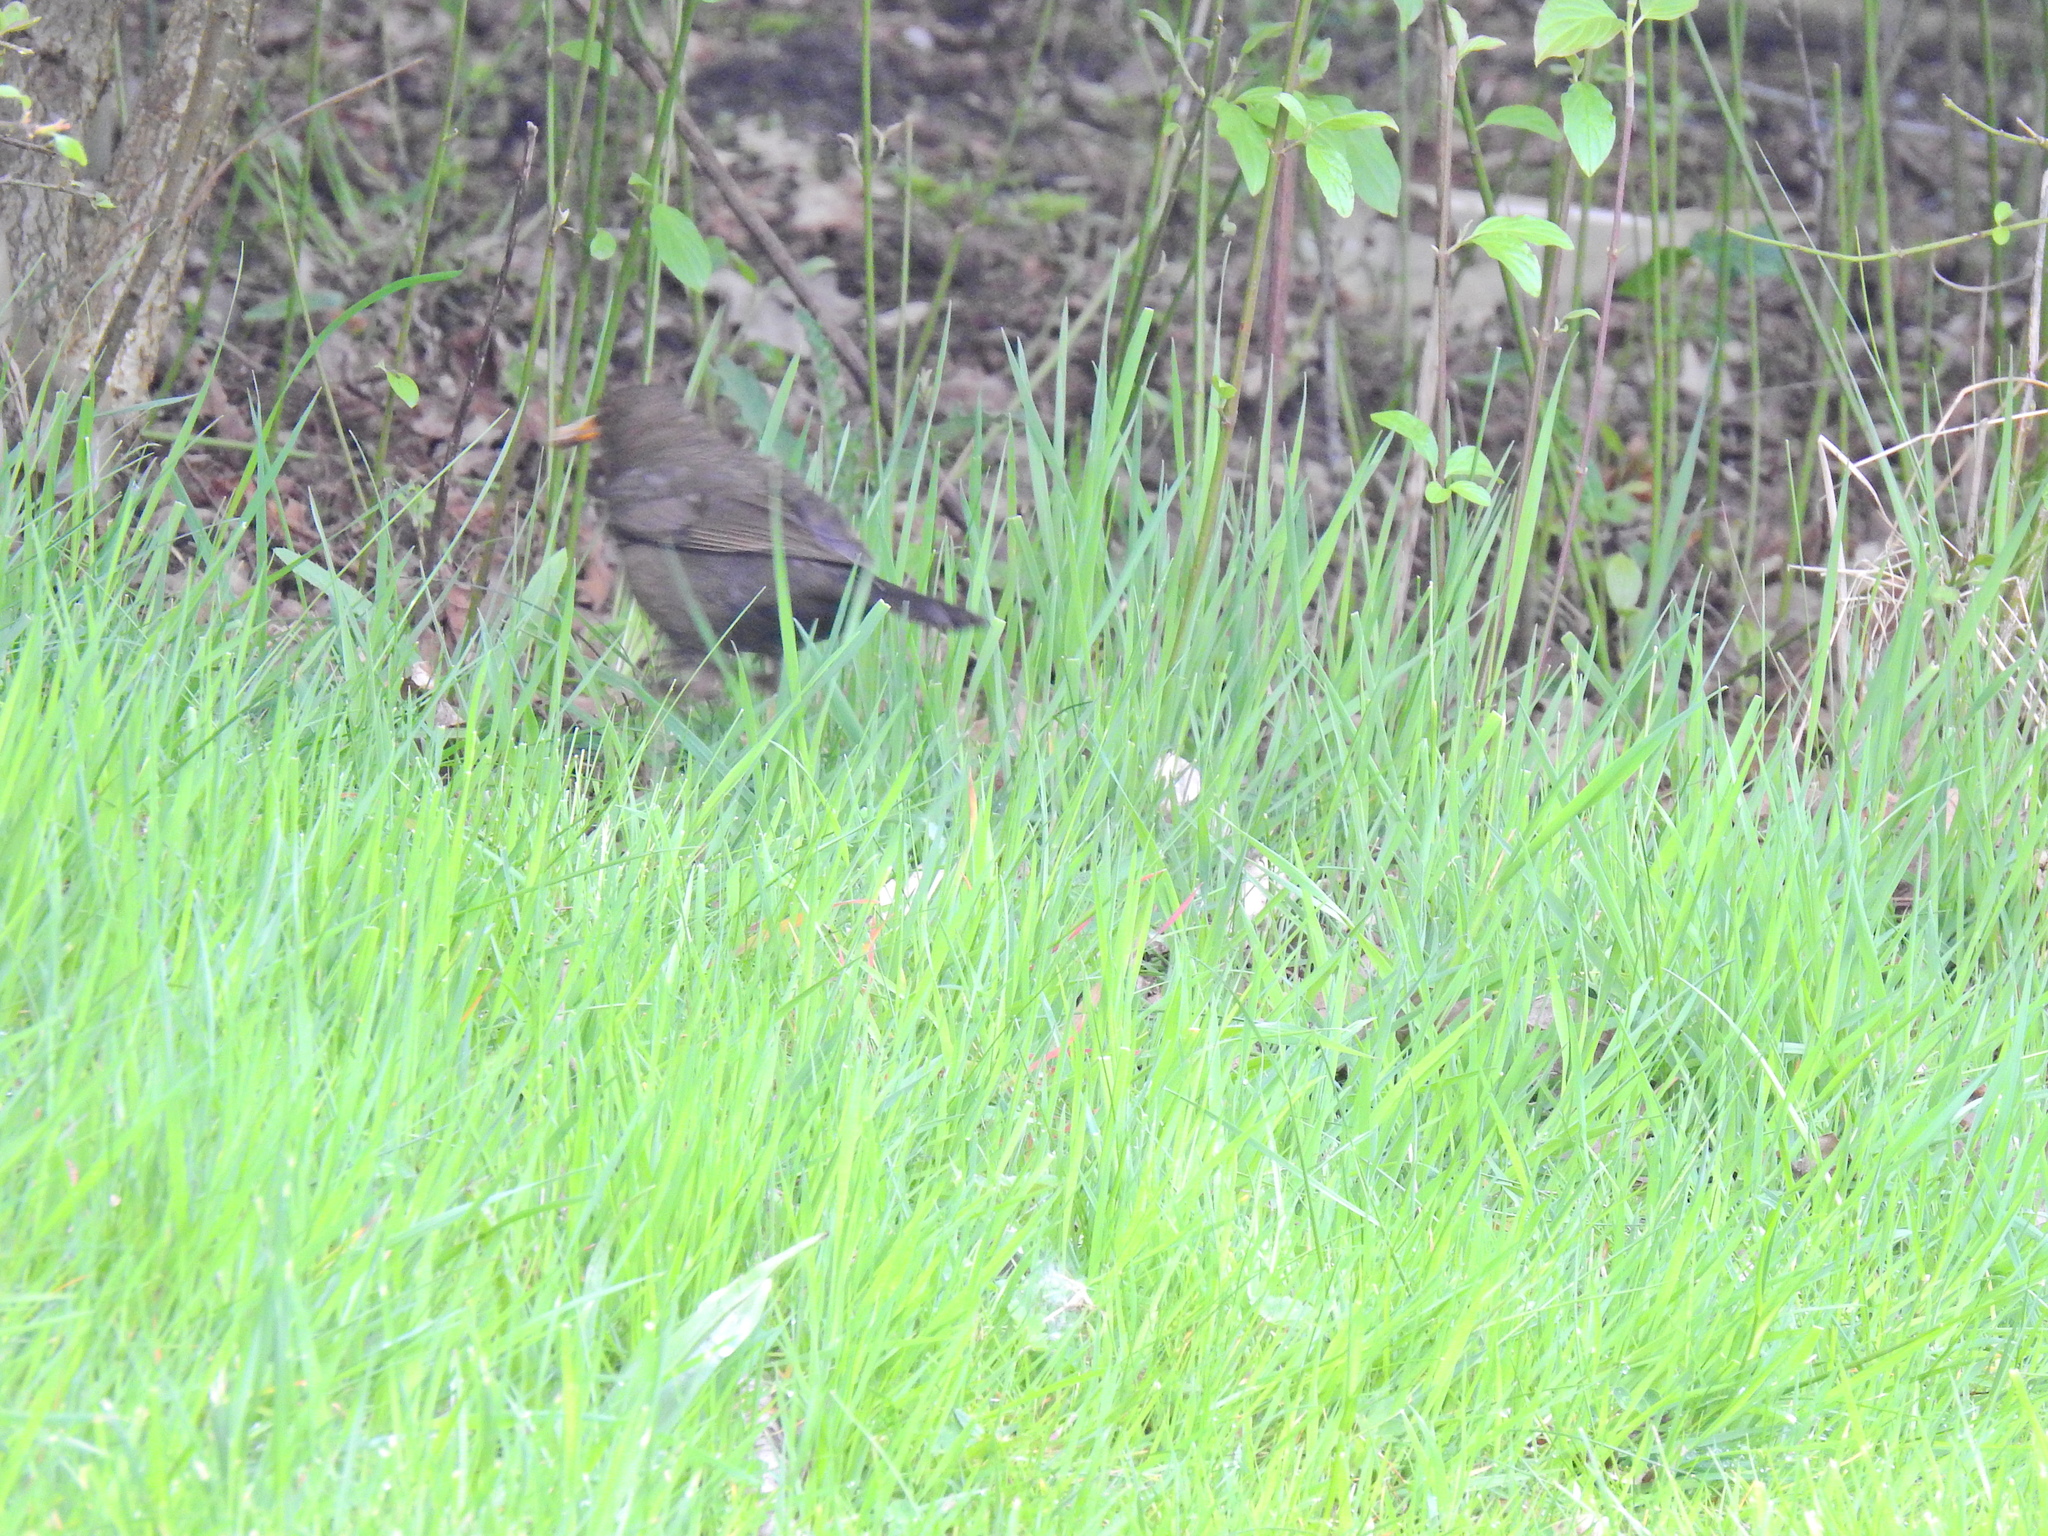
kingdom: Animalia
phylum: Chordata
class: Aves
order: Passeriformes
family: Turdidae
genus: Turdus
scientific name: Turdus merula
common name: Common blackbird
